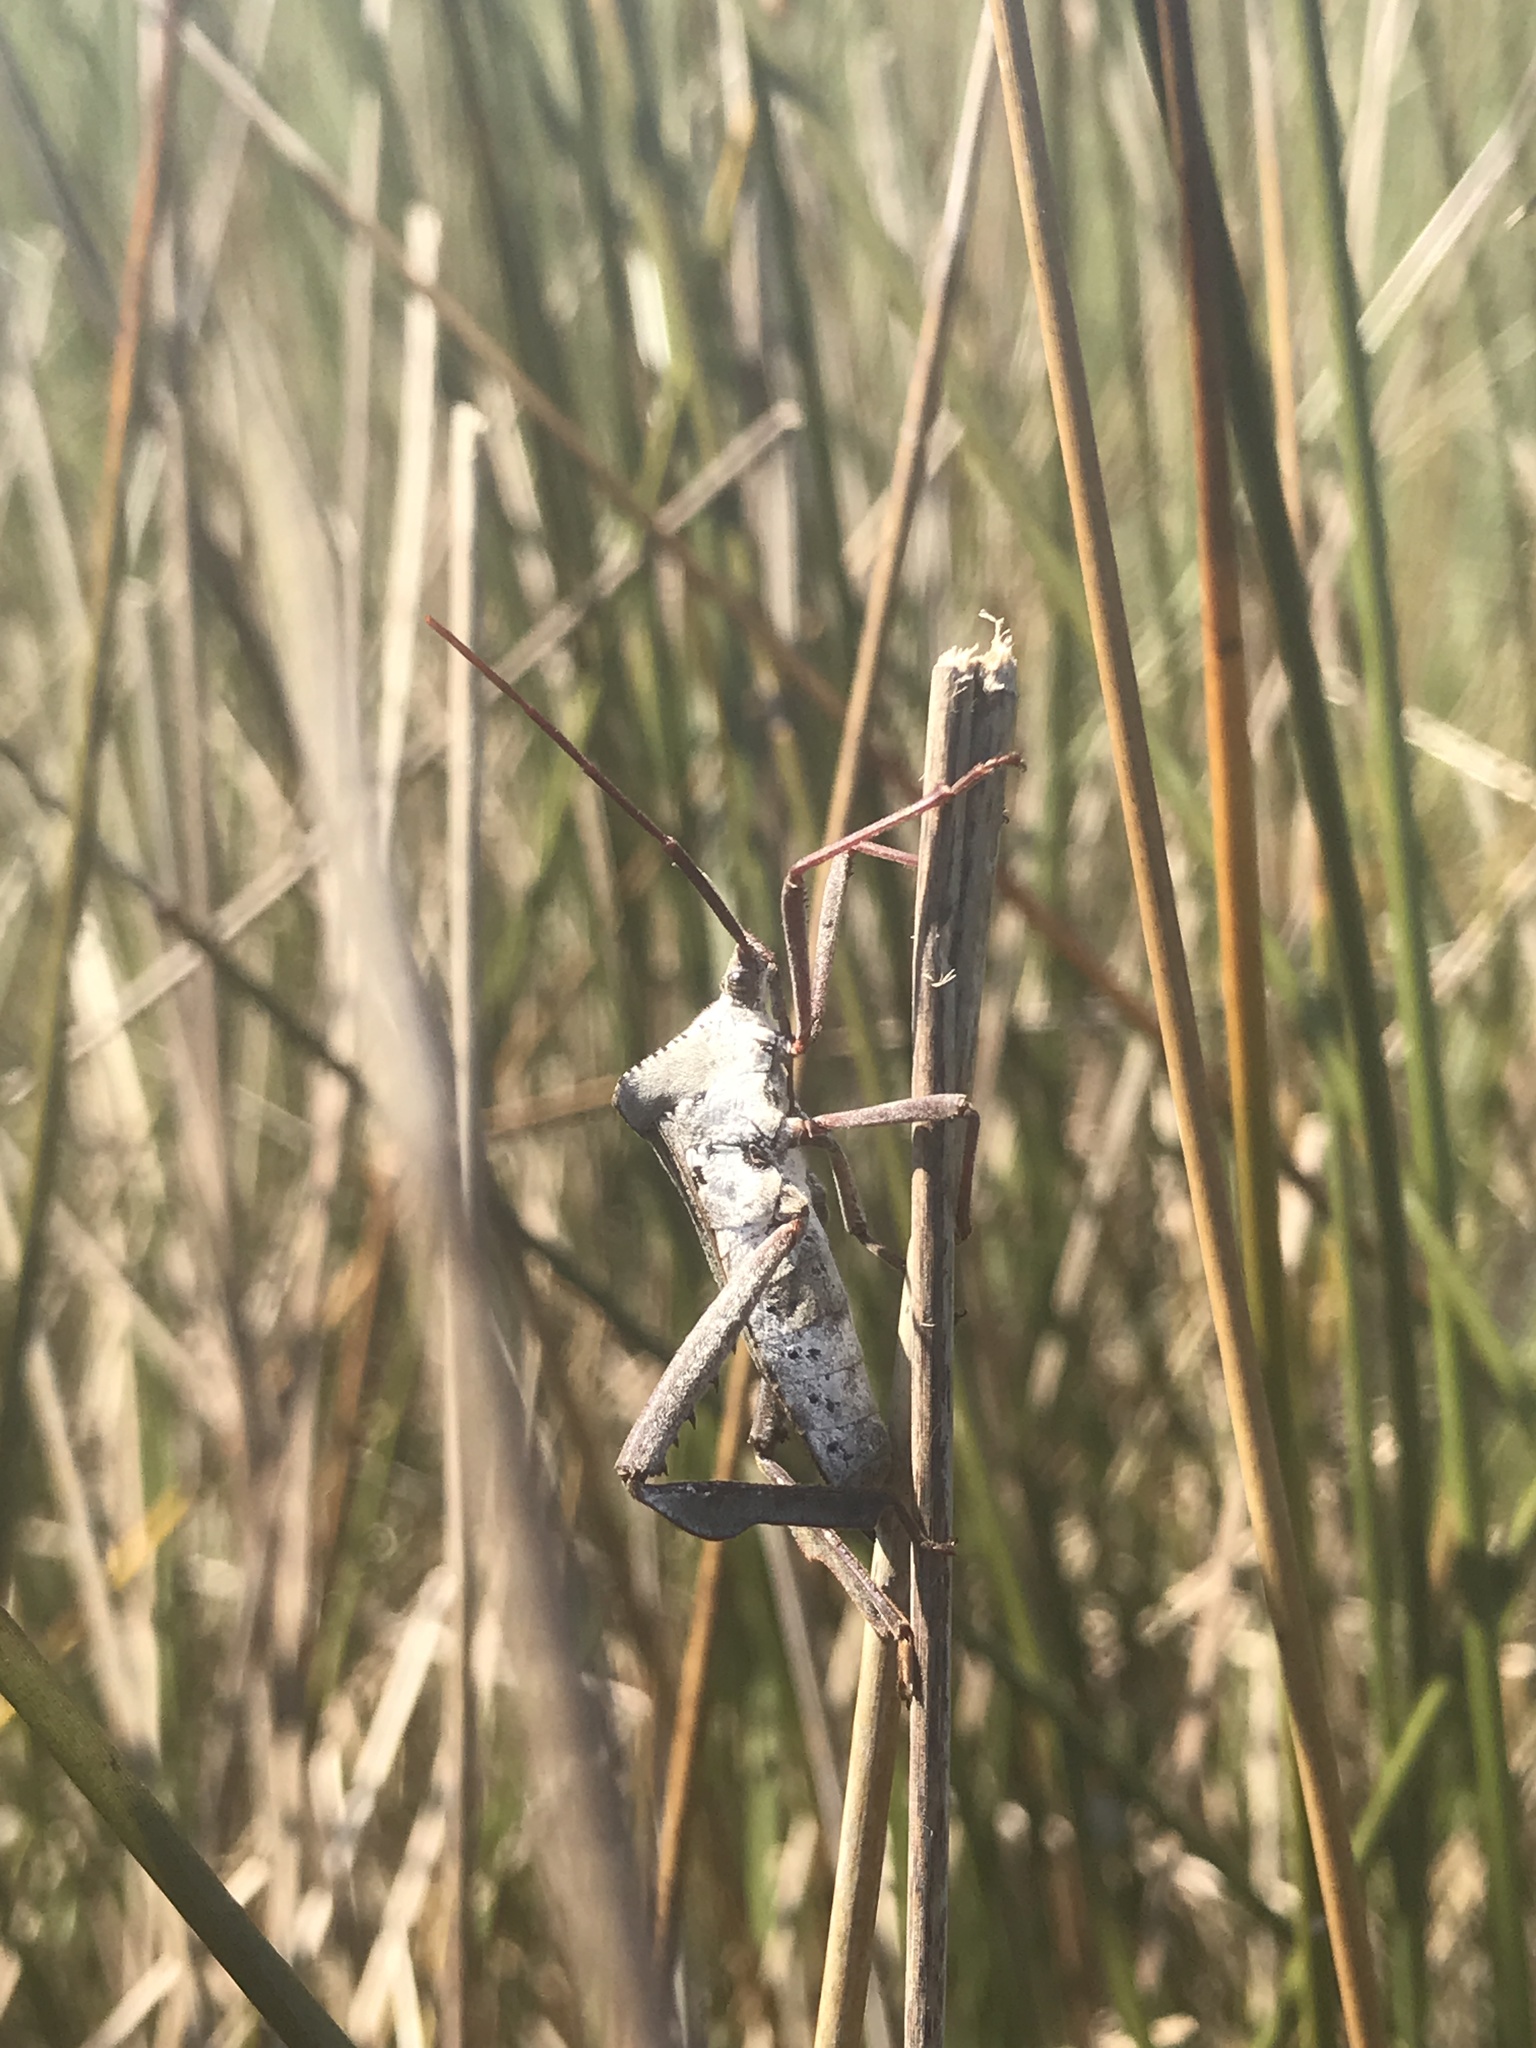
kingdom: Animalia
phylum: Arthropoda
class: Insecta
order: Hemiptera
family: Coreidae
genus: Acanthocephala
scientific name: Acanthocephala declivis
